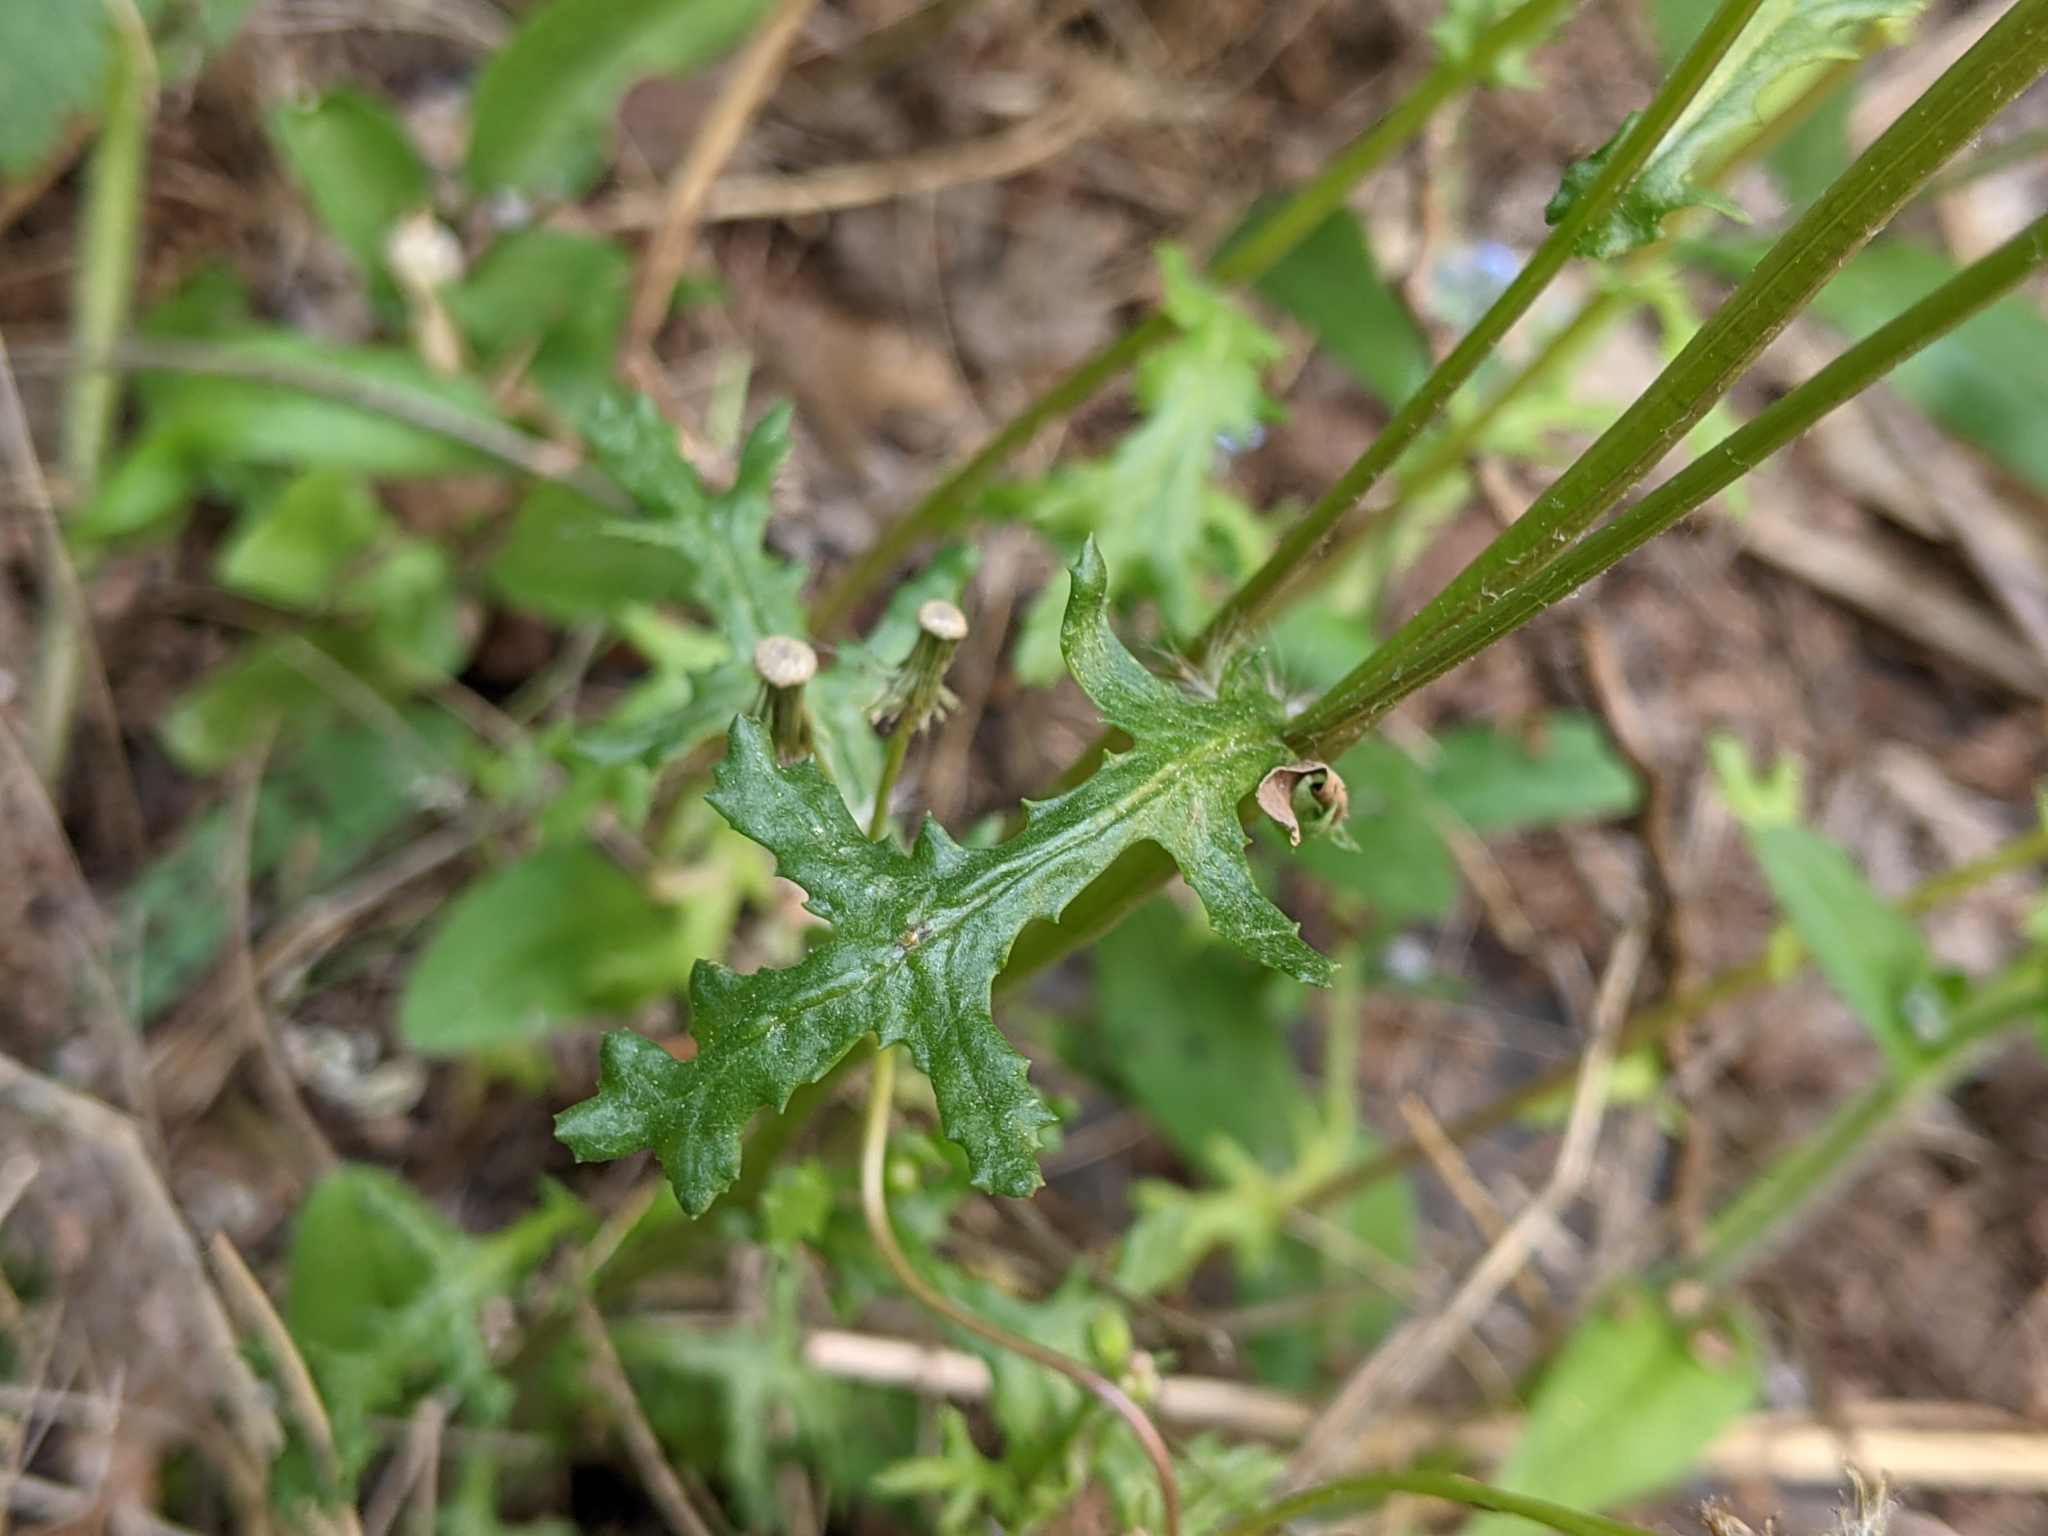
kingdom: Plantae
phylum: Tracheophyta
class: Magnoliopsida
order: Asterales
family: Asteraceae
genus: Senecio
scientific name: Senecio vulgaris
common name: Old-man-in-the-spring
